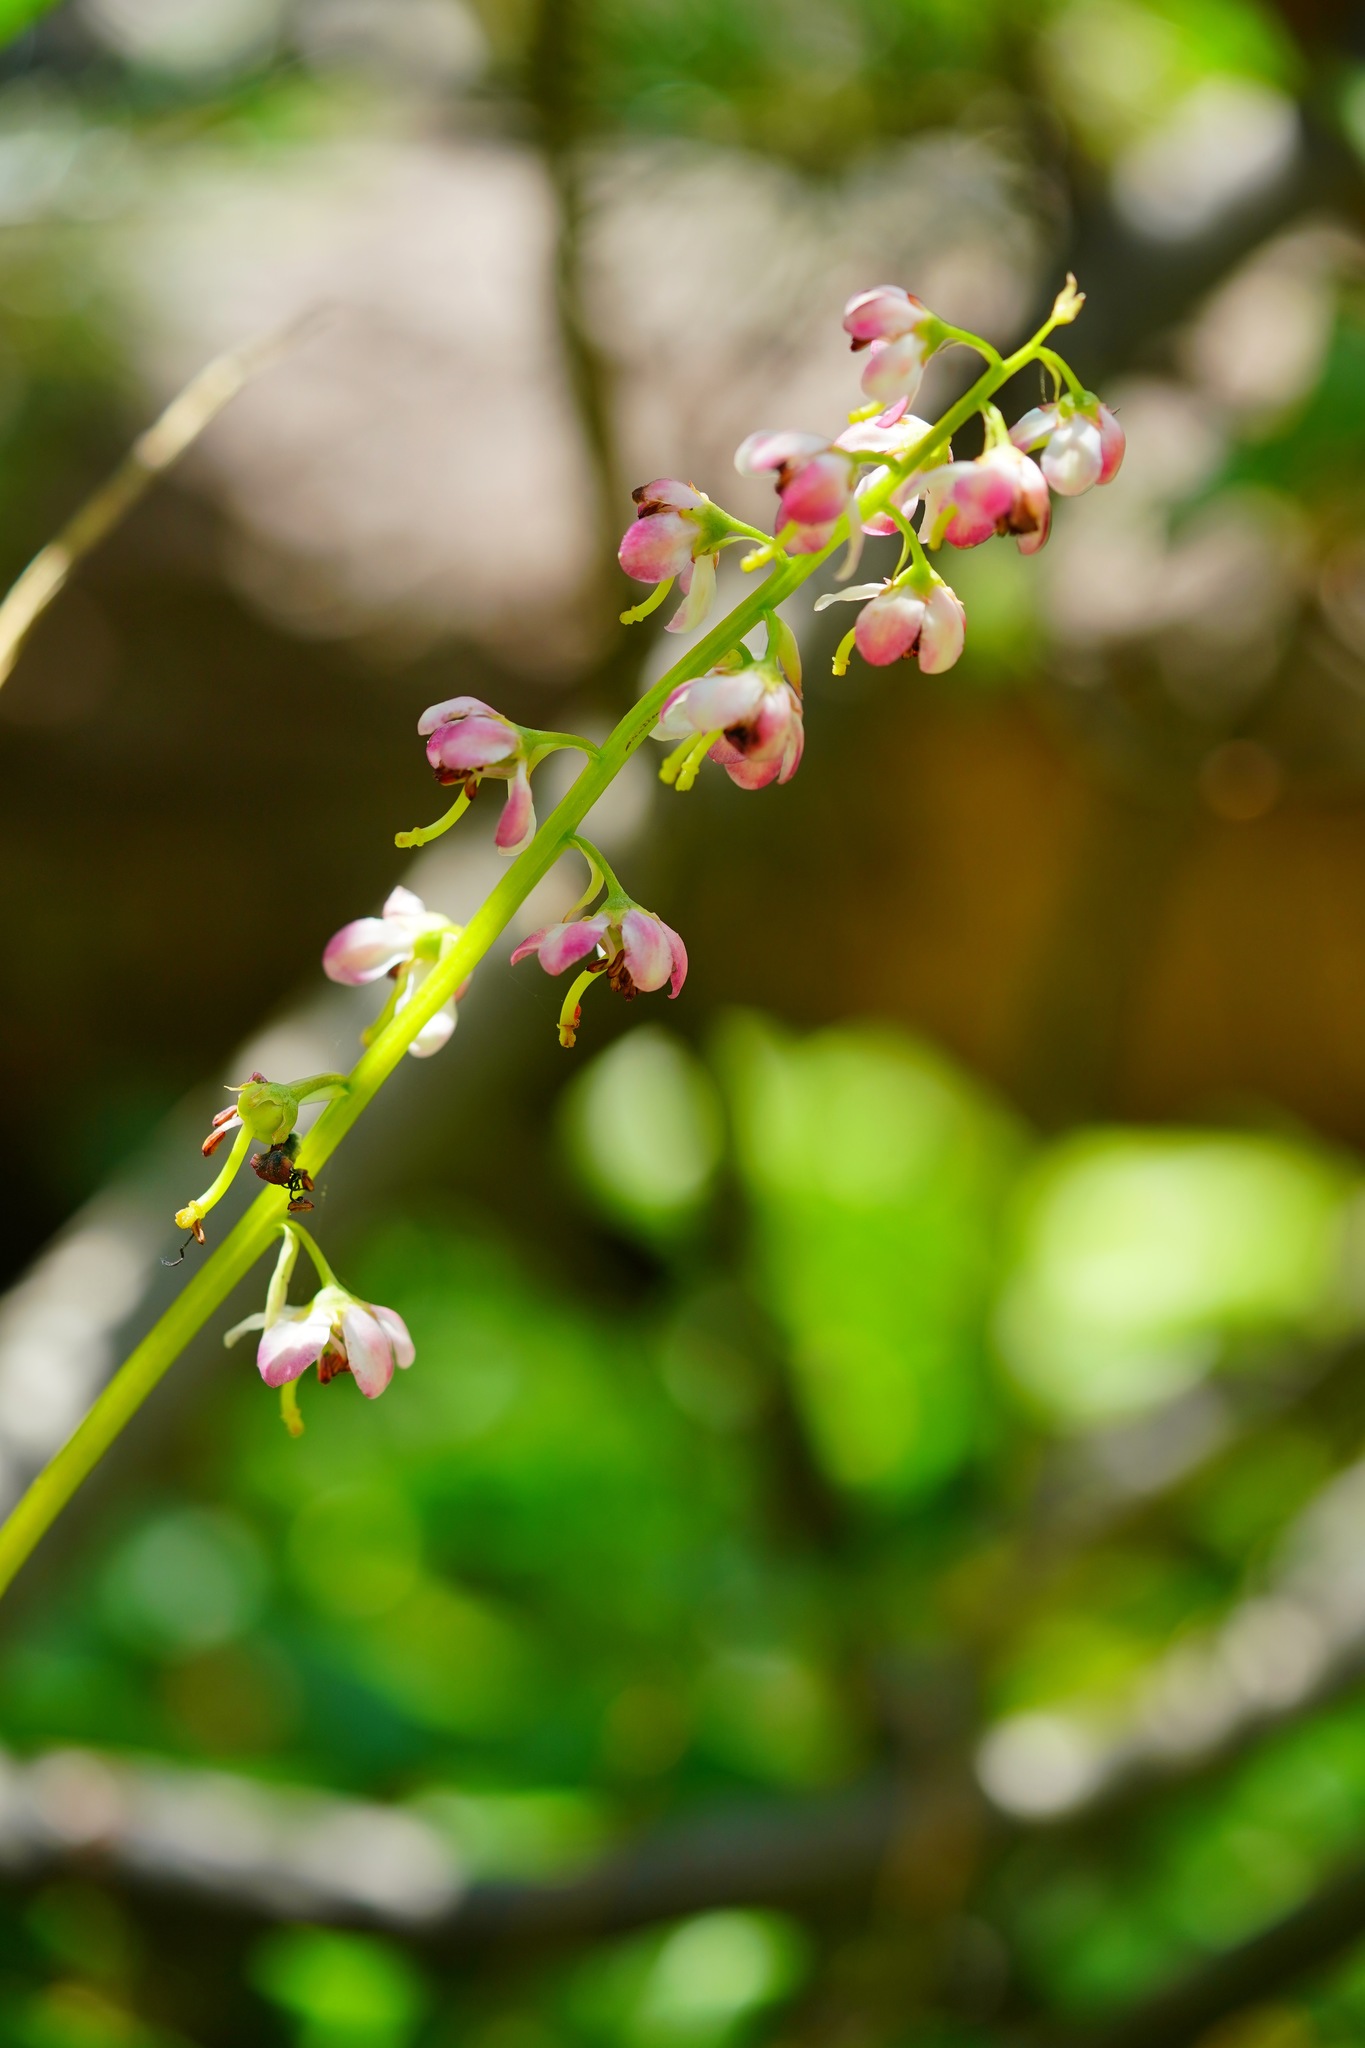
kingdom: Plantae
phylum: Tracheophyta
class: Magnoliopsida
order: Ericales
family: Ericaceae
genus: Pyrola
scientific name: Pyrola asarifolia
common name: Bog wintergreen
